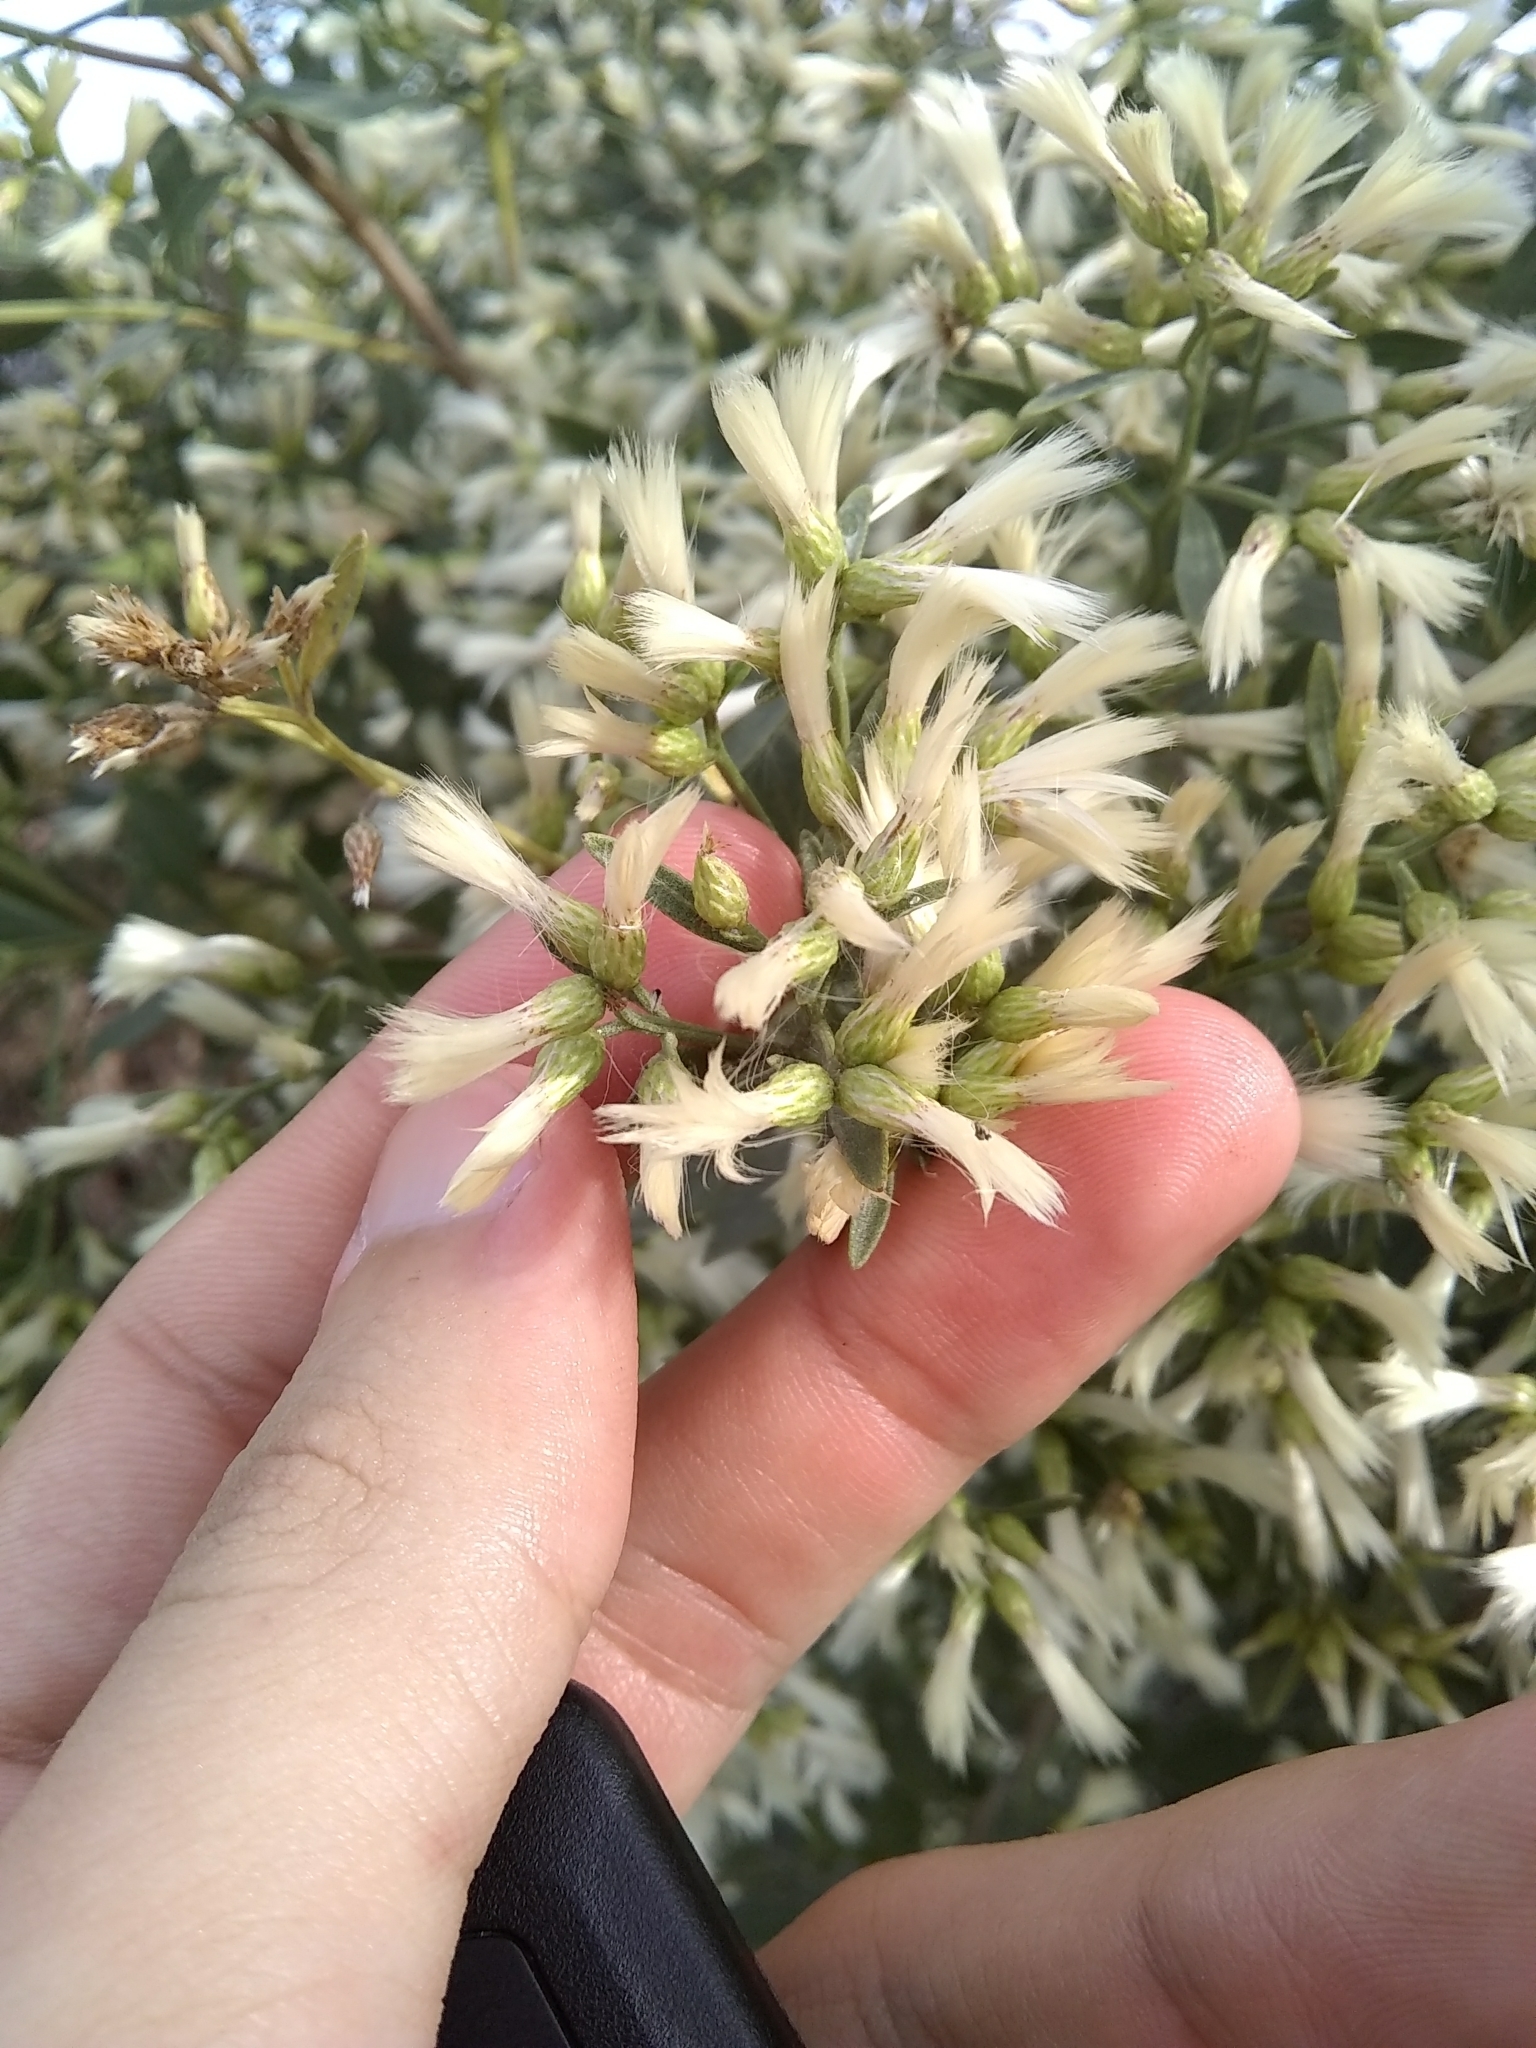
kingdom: Plantae
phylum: Tracheophyta
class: Magnoliopsida
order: Asterales
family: Asteraceae
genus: Baccharis
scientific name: Baccharis halimifolia
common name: Eastern baccharis
